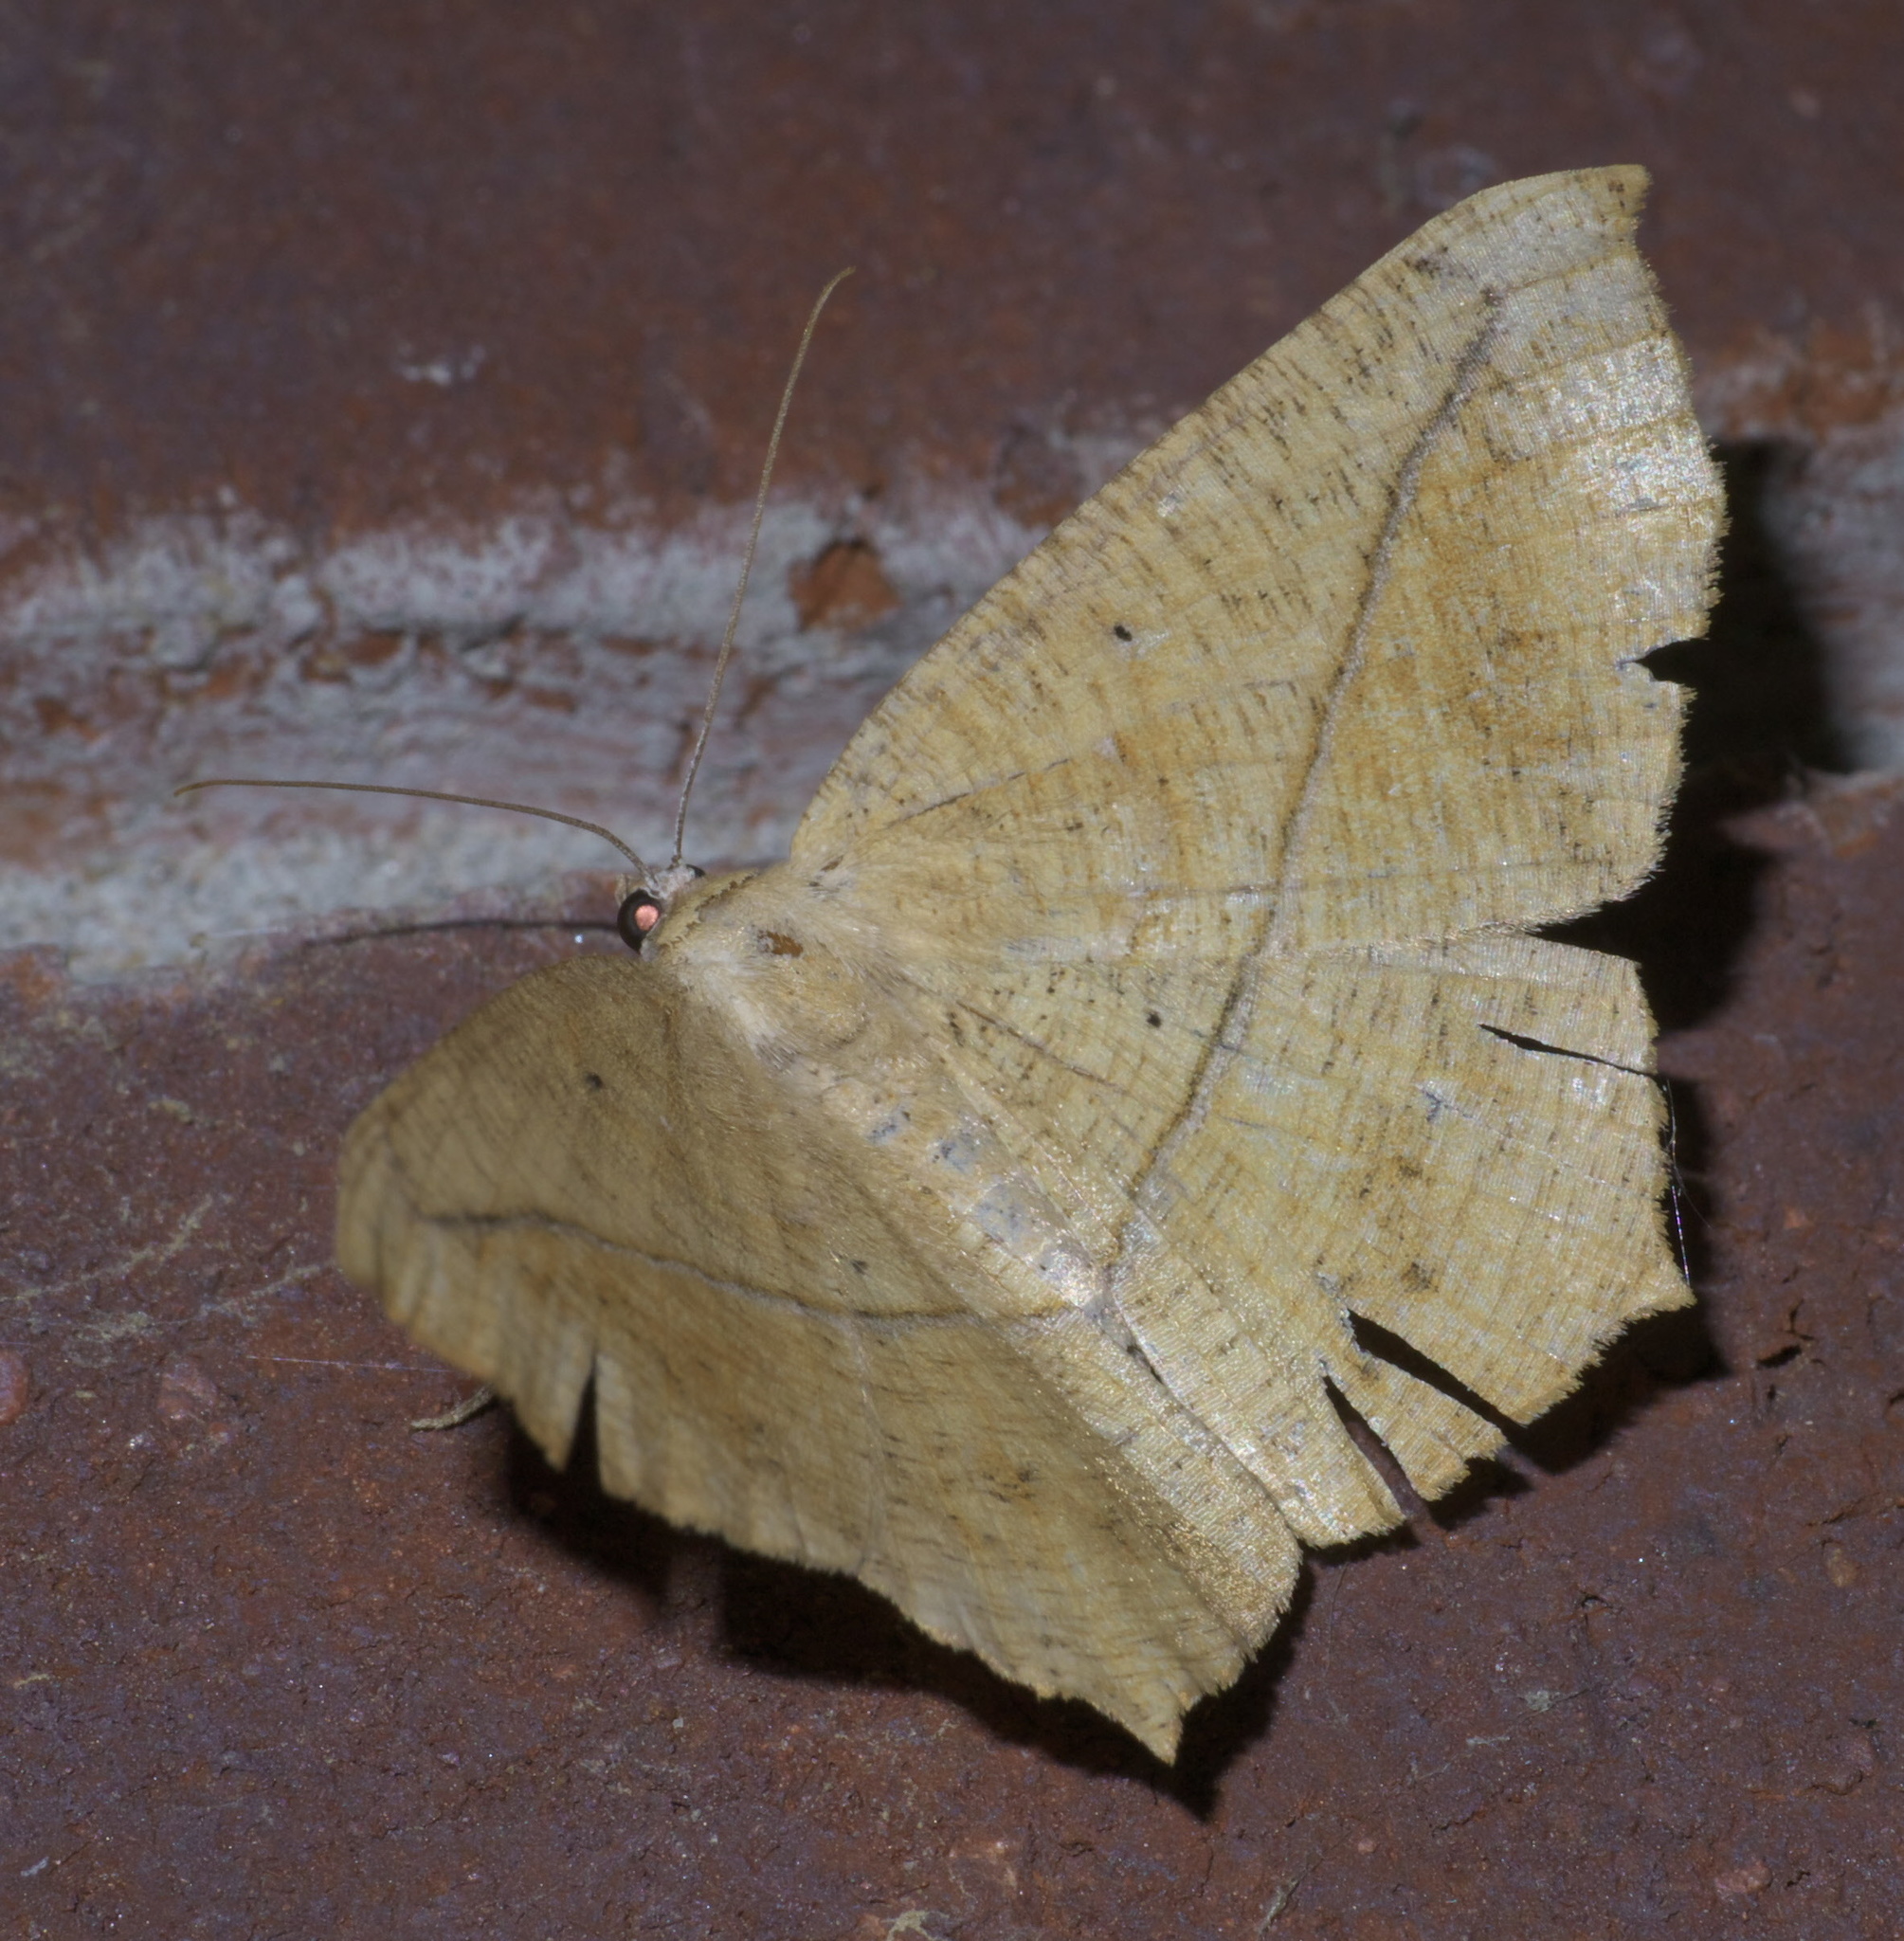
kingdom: Animalia
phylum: Arthropoda
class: Insecta
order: Lepidoptera
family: Geometridae
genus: Prochoerodes
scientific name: Prochoerodes lineola
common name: Large maple spanworm
